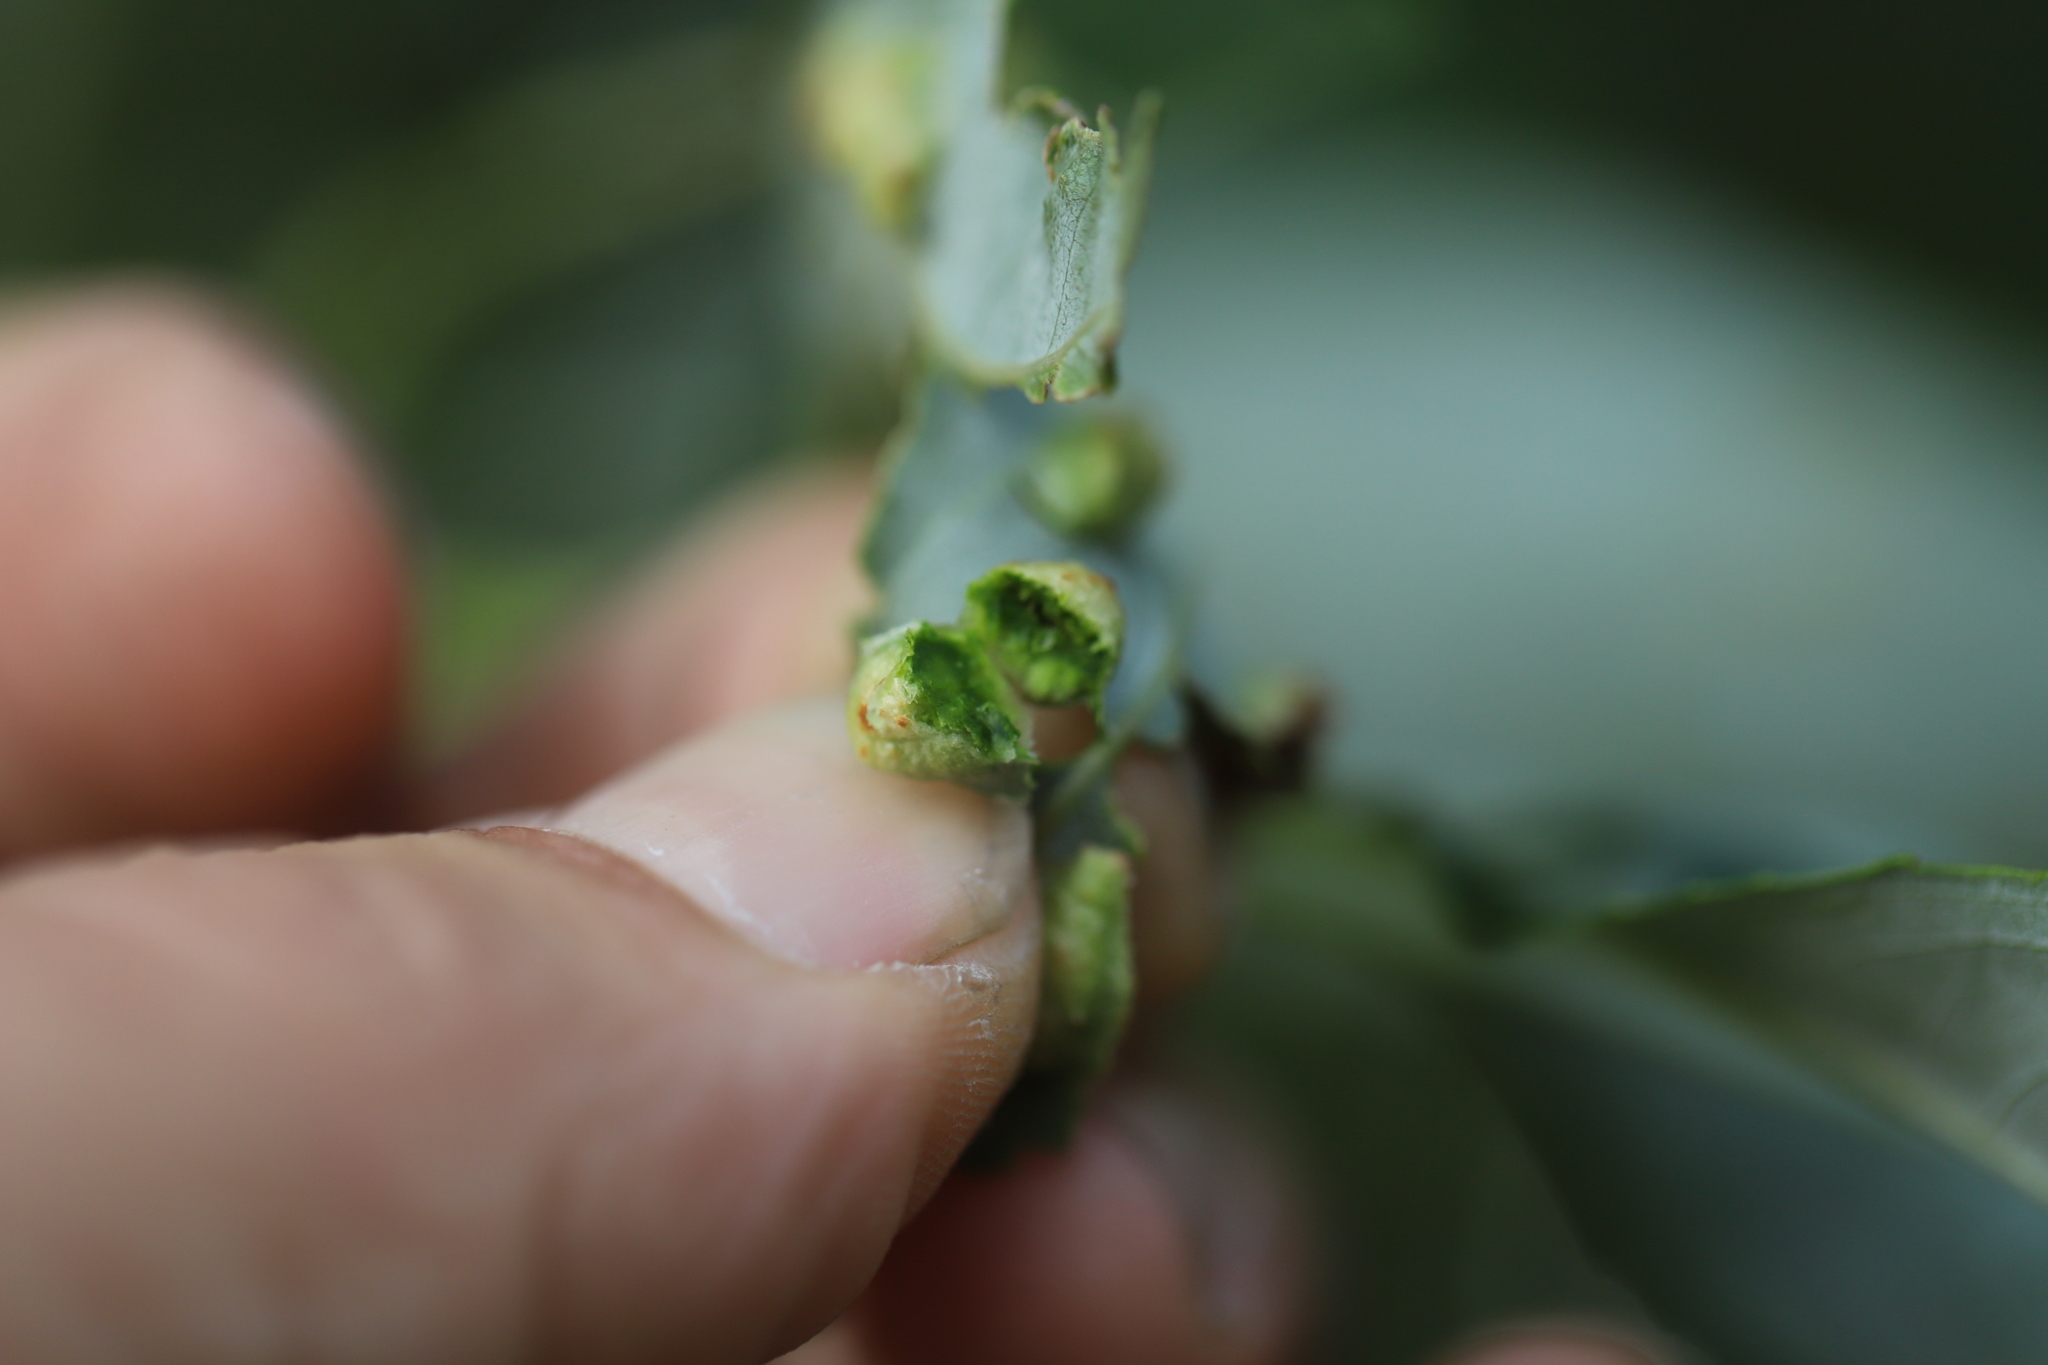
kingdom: Animalia
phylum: Arthropoda
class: Insecta
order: Hymenoptera
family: Tenthredinidae
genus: Pontania
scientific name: Pontania proxima
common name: Common sawfly
